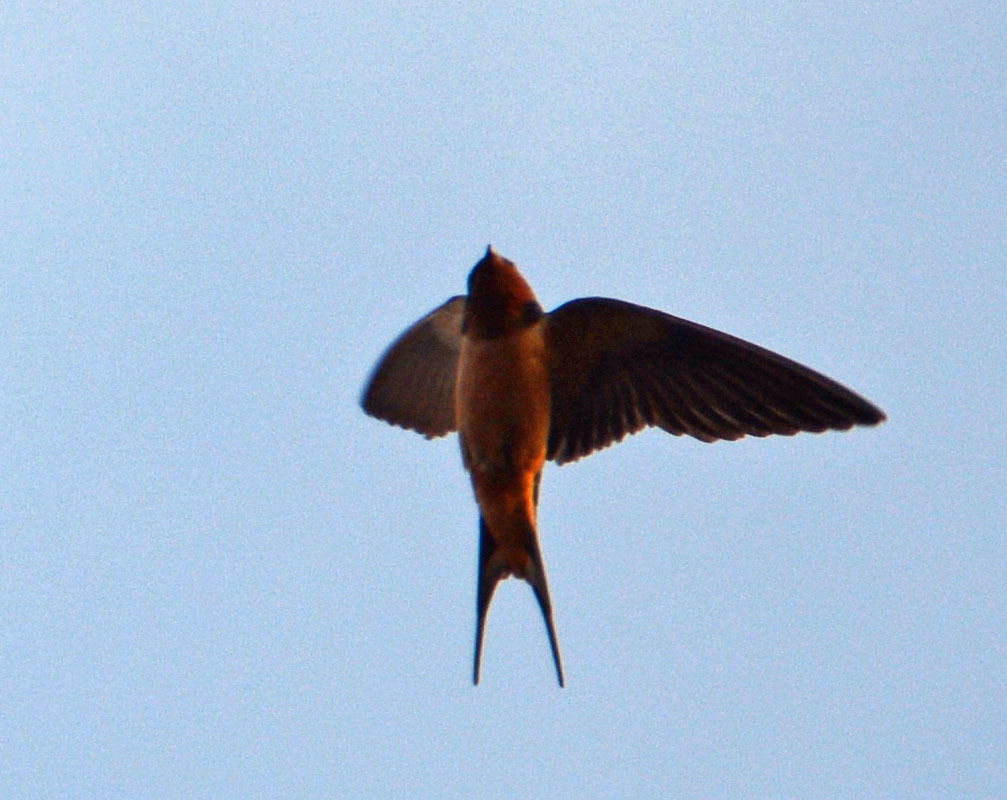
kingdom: Animalia
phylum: Chordata
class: Aves
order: Passeriformes
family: Hirundinidae
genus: Hirundo
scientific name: Hirundo rustica
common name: Barn swallow
